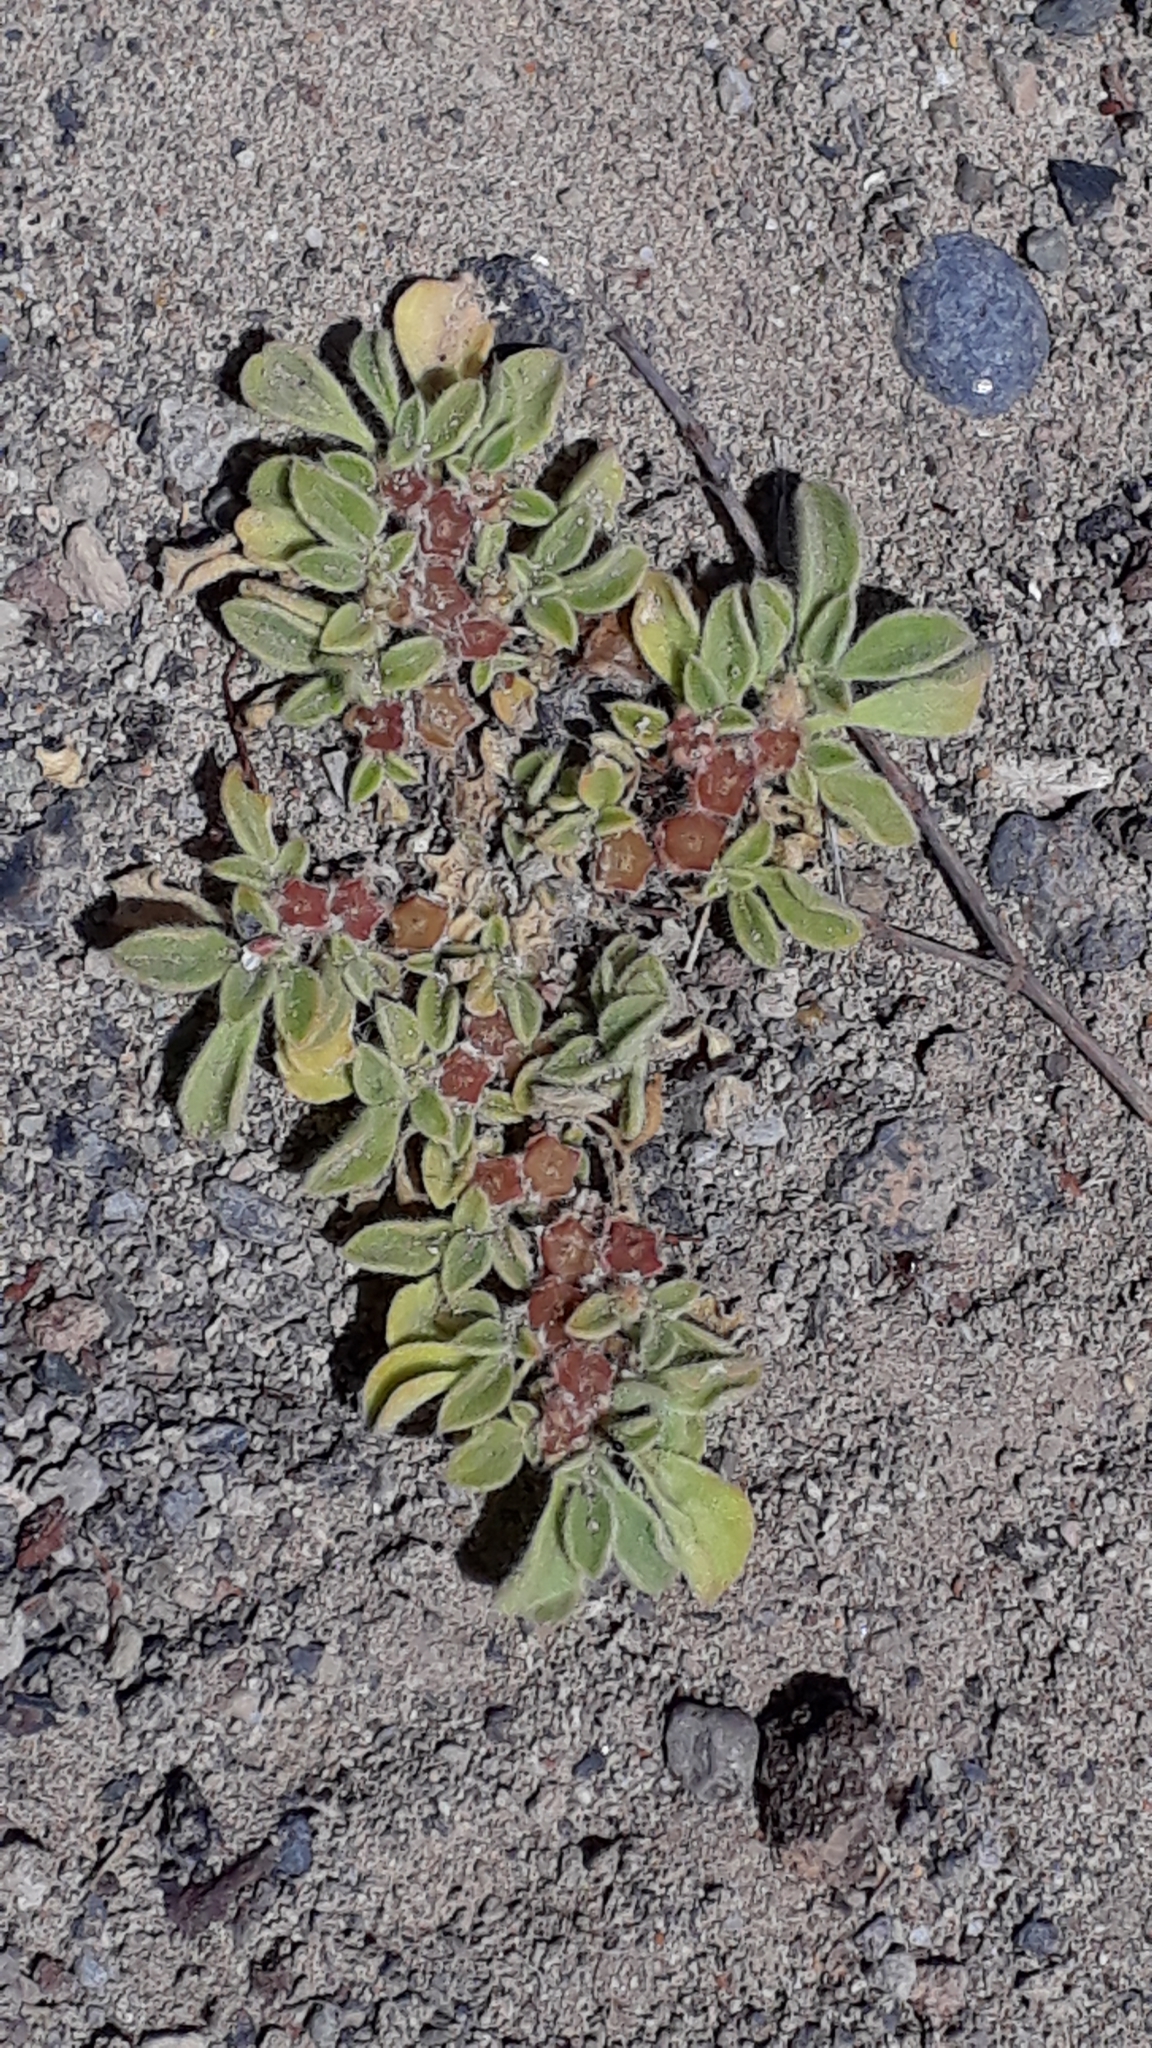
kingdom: Plantae
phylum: Tracheophyta
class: Magnoliopsida
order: Caryophyllales
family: Aizoaceae
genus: Aizoon
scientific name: Aizoon canariense
